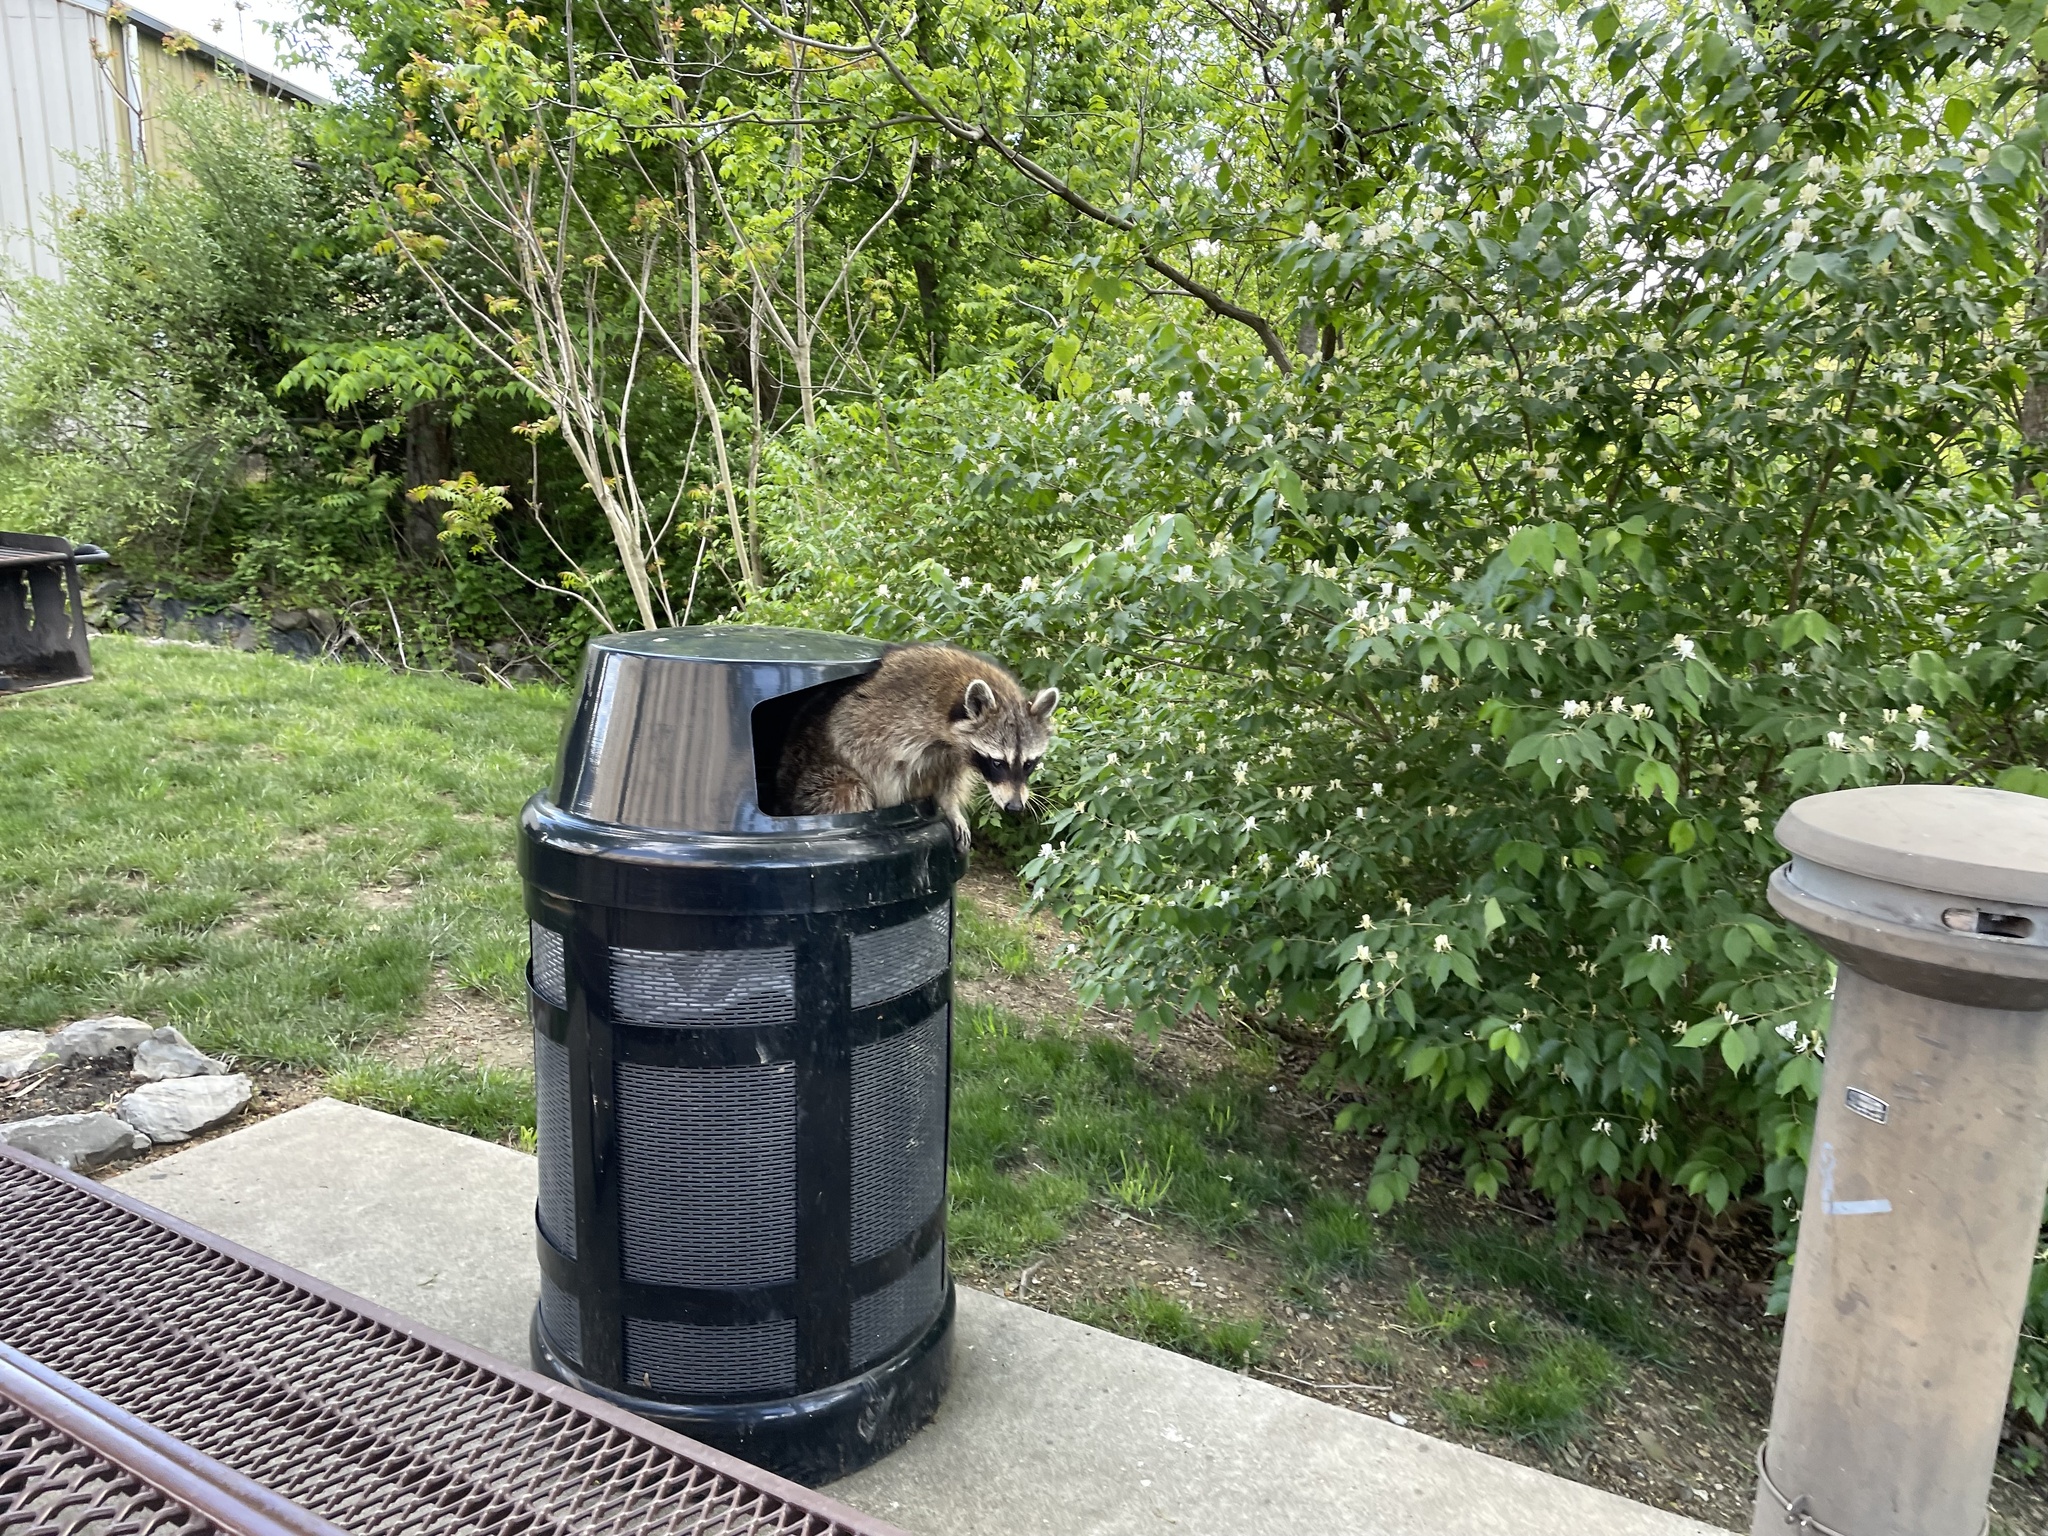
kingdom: Animalia
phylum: Chordata
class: Mammalia
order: Carnivora
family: Procyonidae
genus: Procyon
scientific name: Procyon lotor
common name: Raccoon
